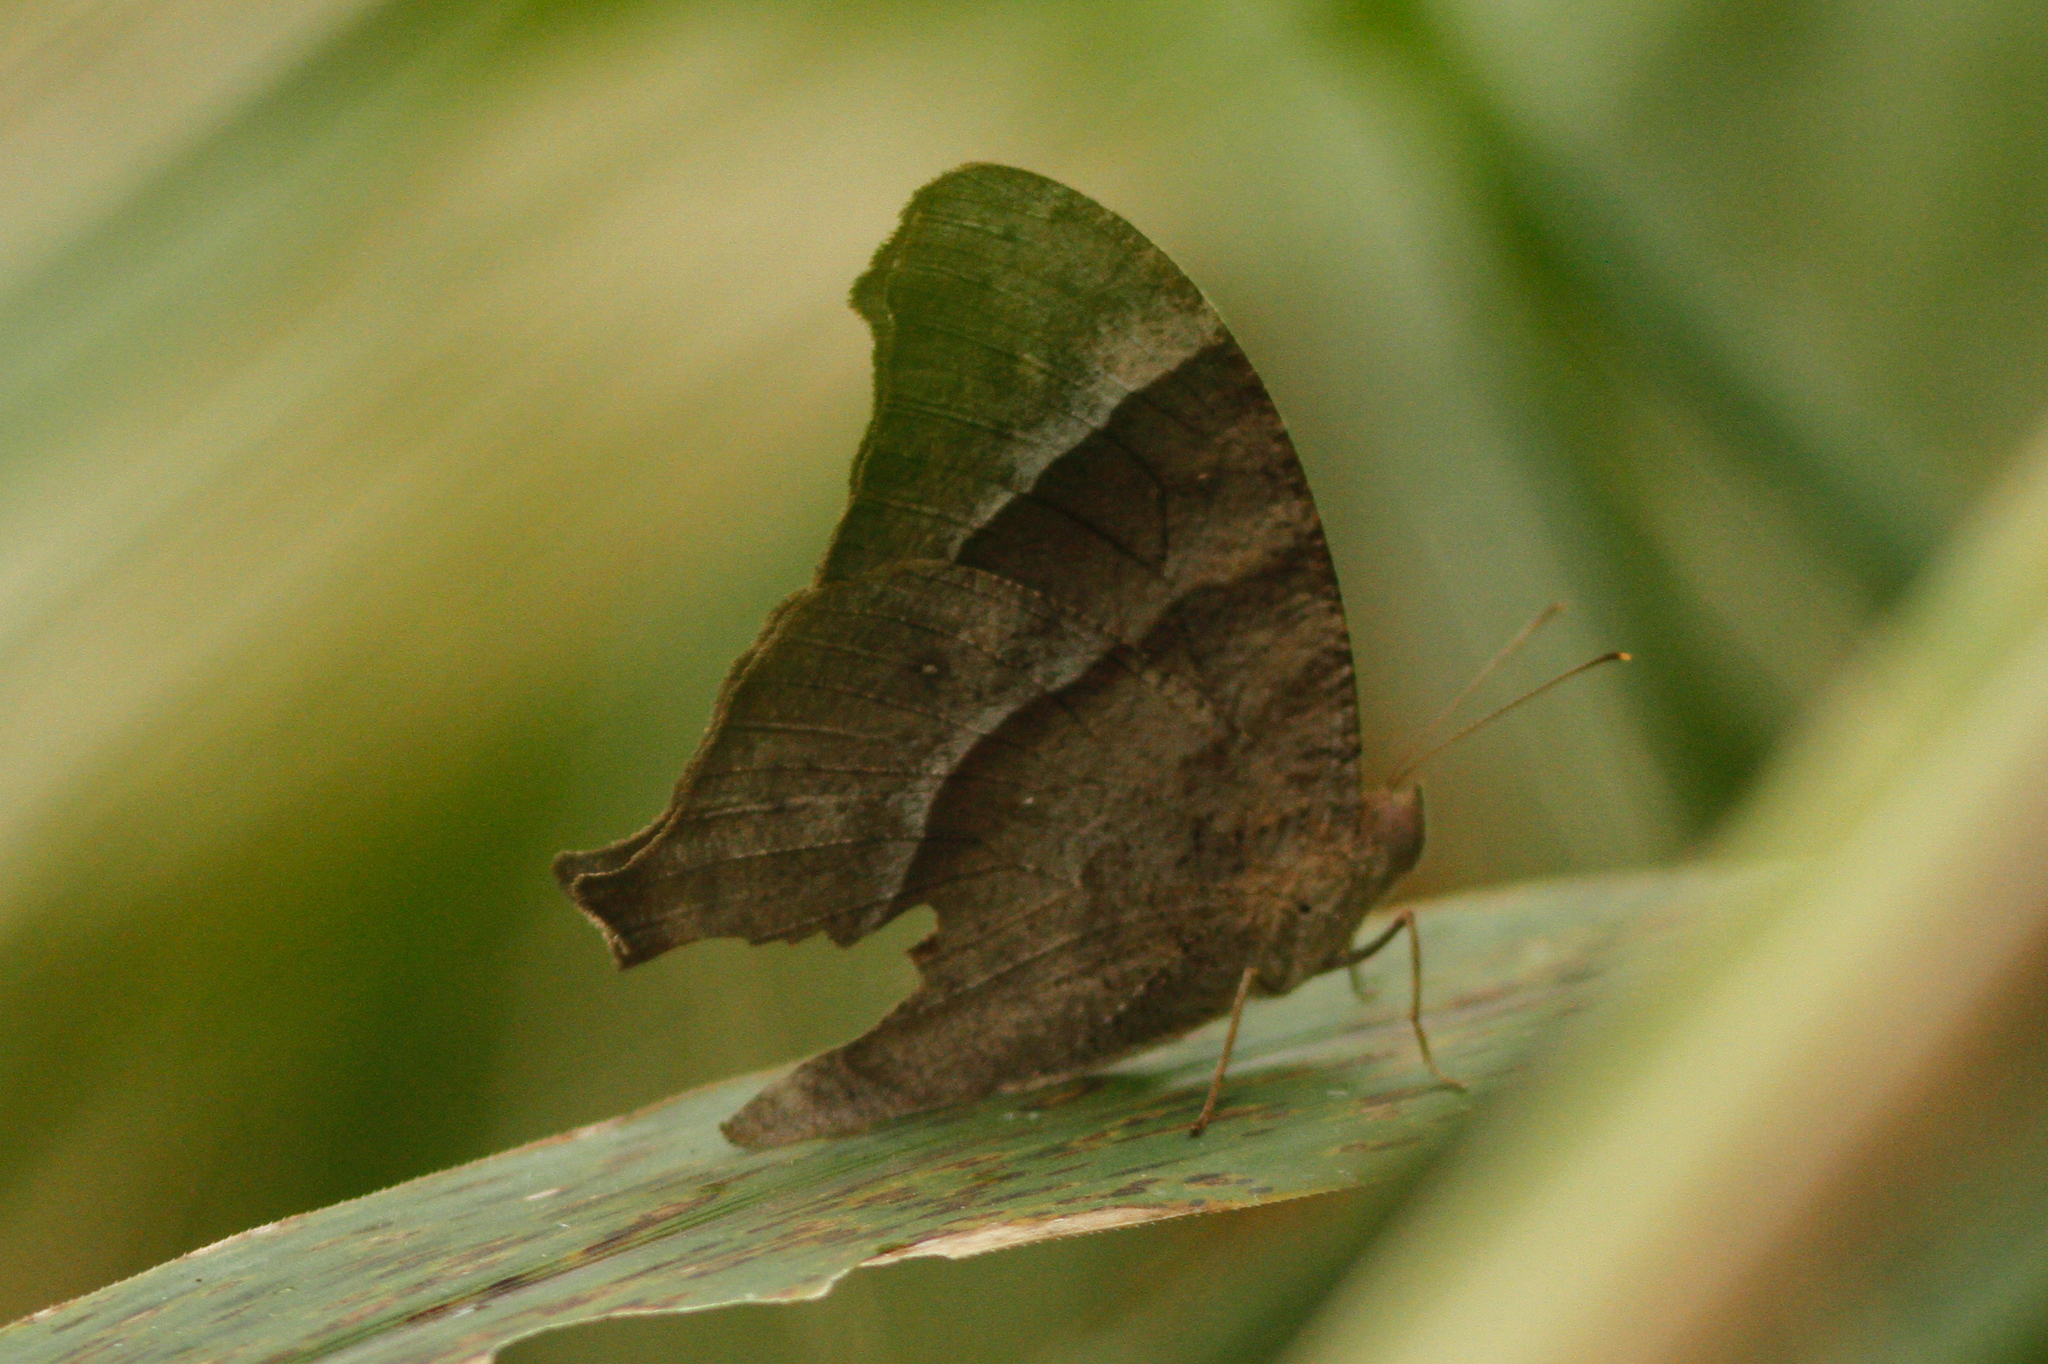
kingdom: Animalia
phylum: Arthropoda
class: Insecta
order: Lepidoptera
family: Nymphalidae
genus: Melanitis
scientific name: Melanitis leda
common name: Twilight brown
